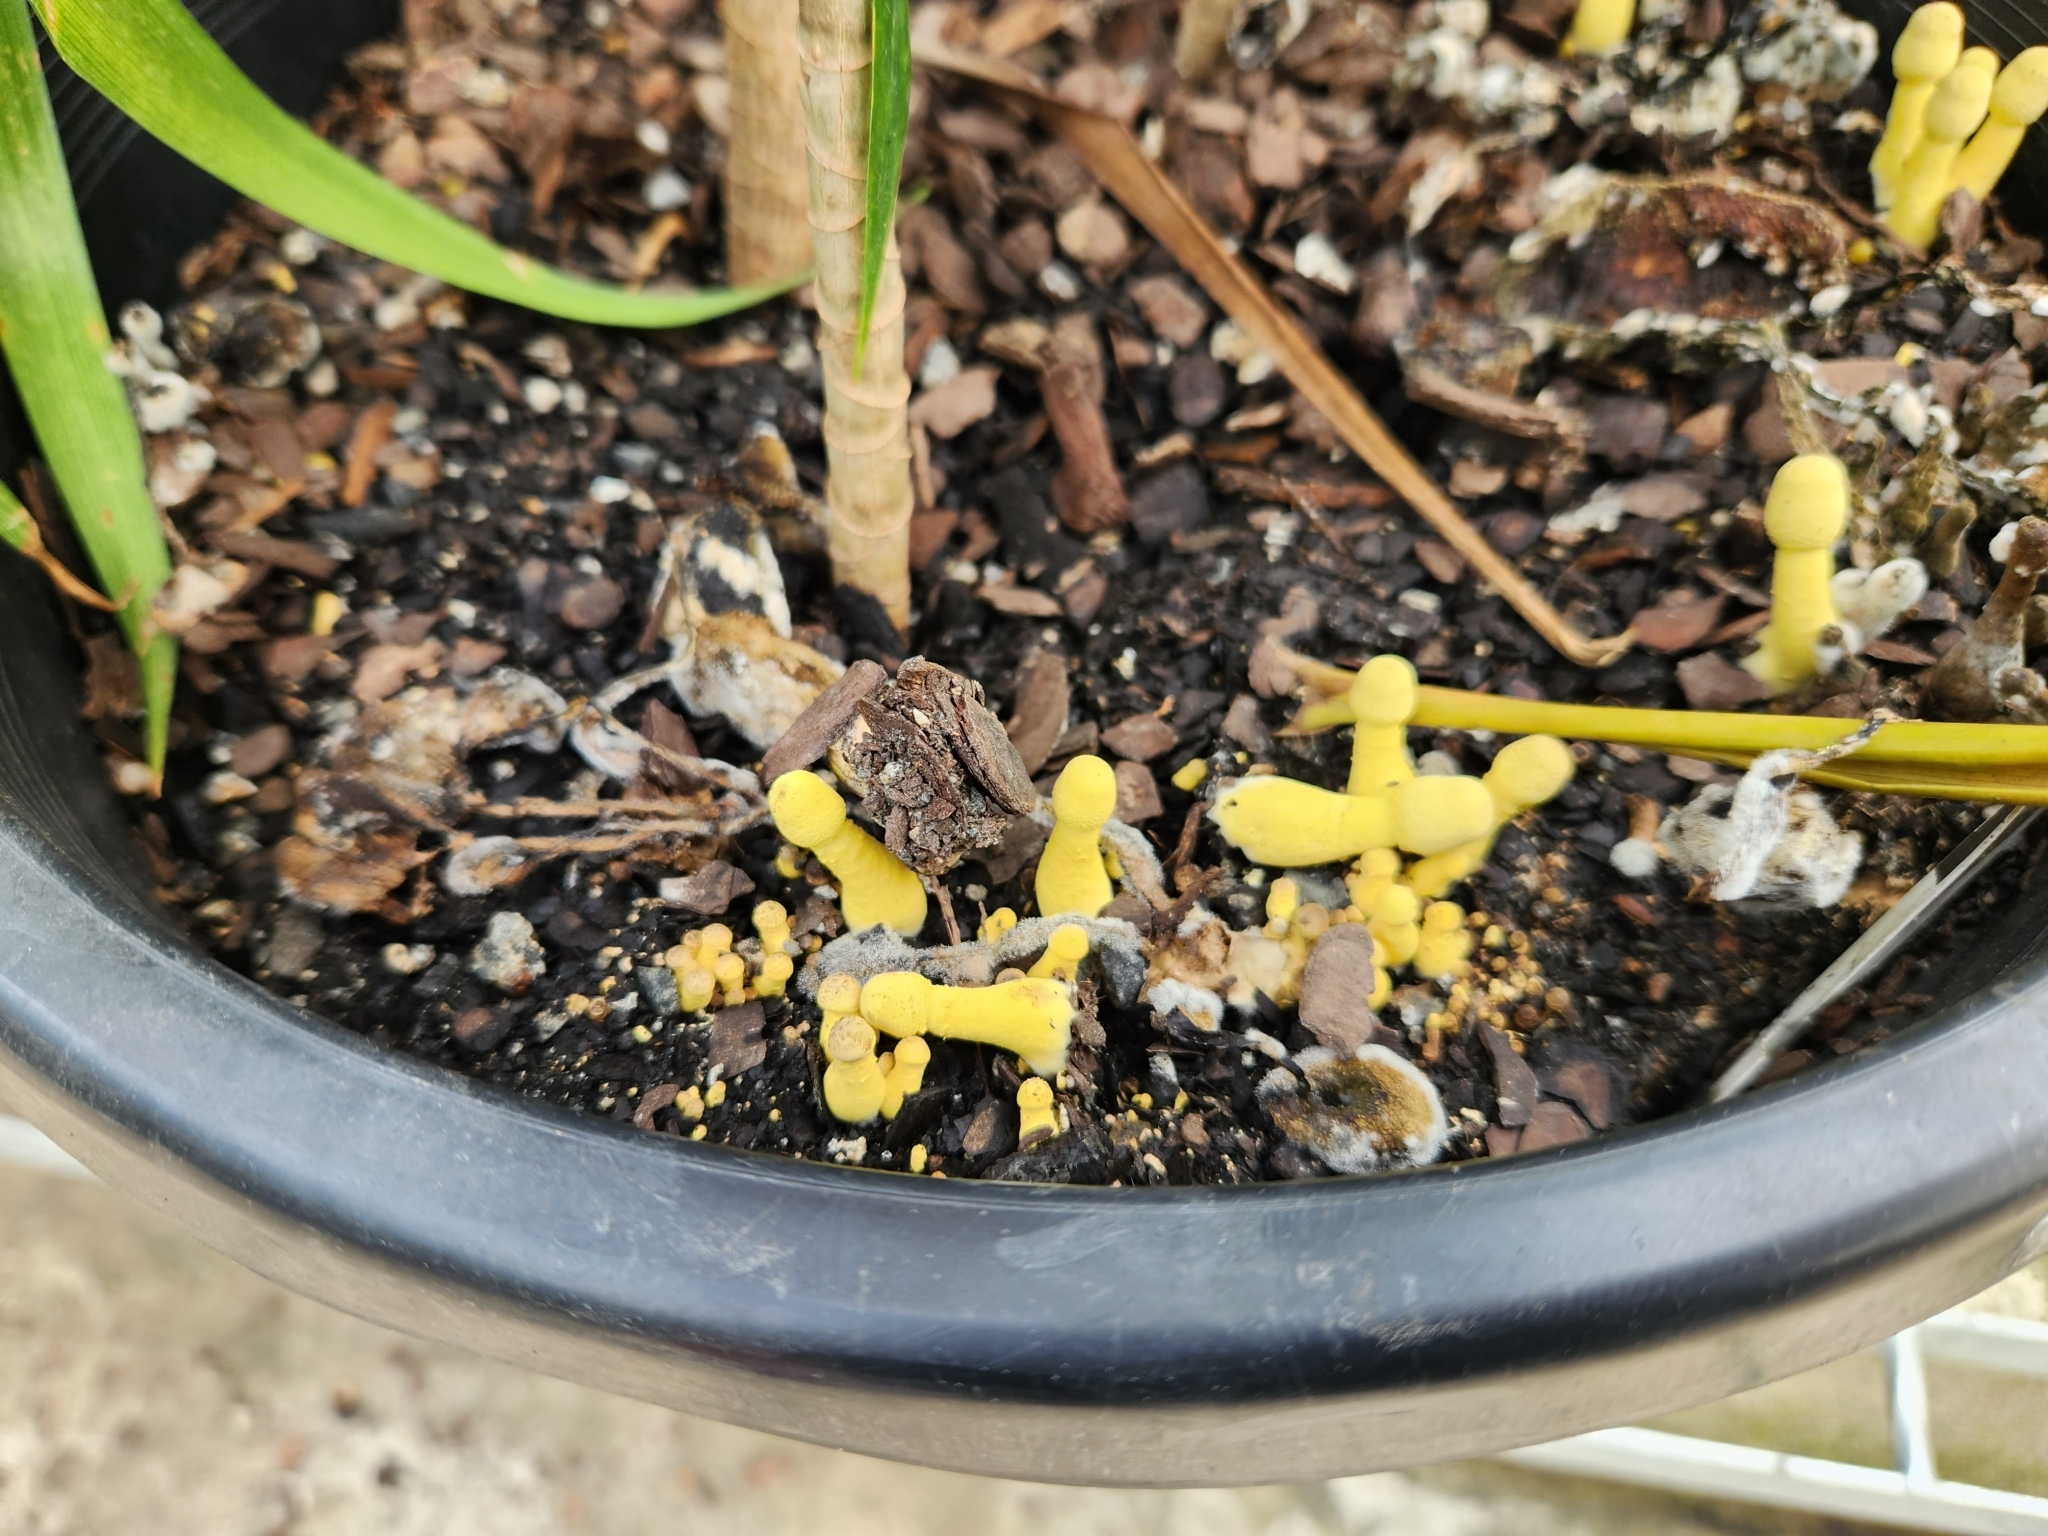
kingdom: Fungi
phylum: Basidiomycota
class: Agaricomycetes
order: Agaricales
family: Agaricaceae
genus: Leucocoprinus
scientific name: Leucocoprinus birnbaumii
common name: Plantpot dapperling
